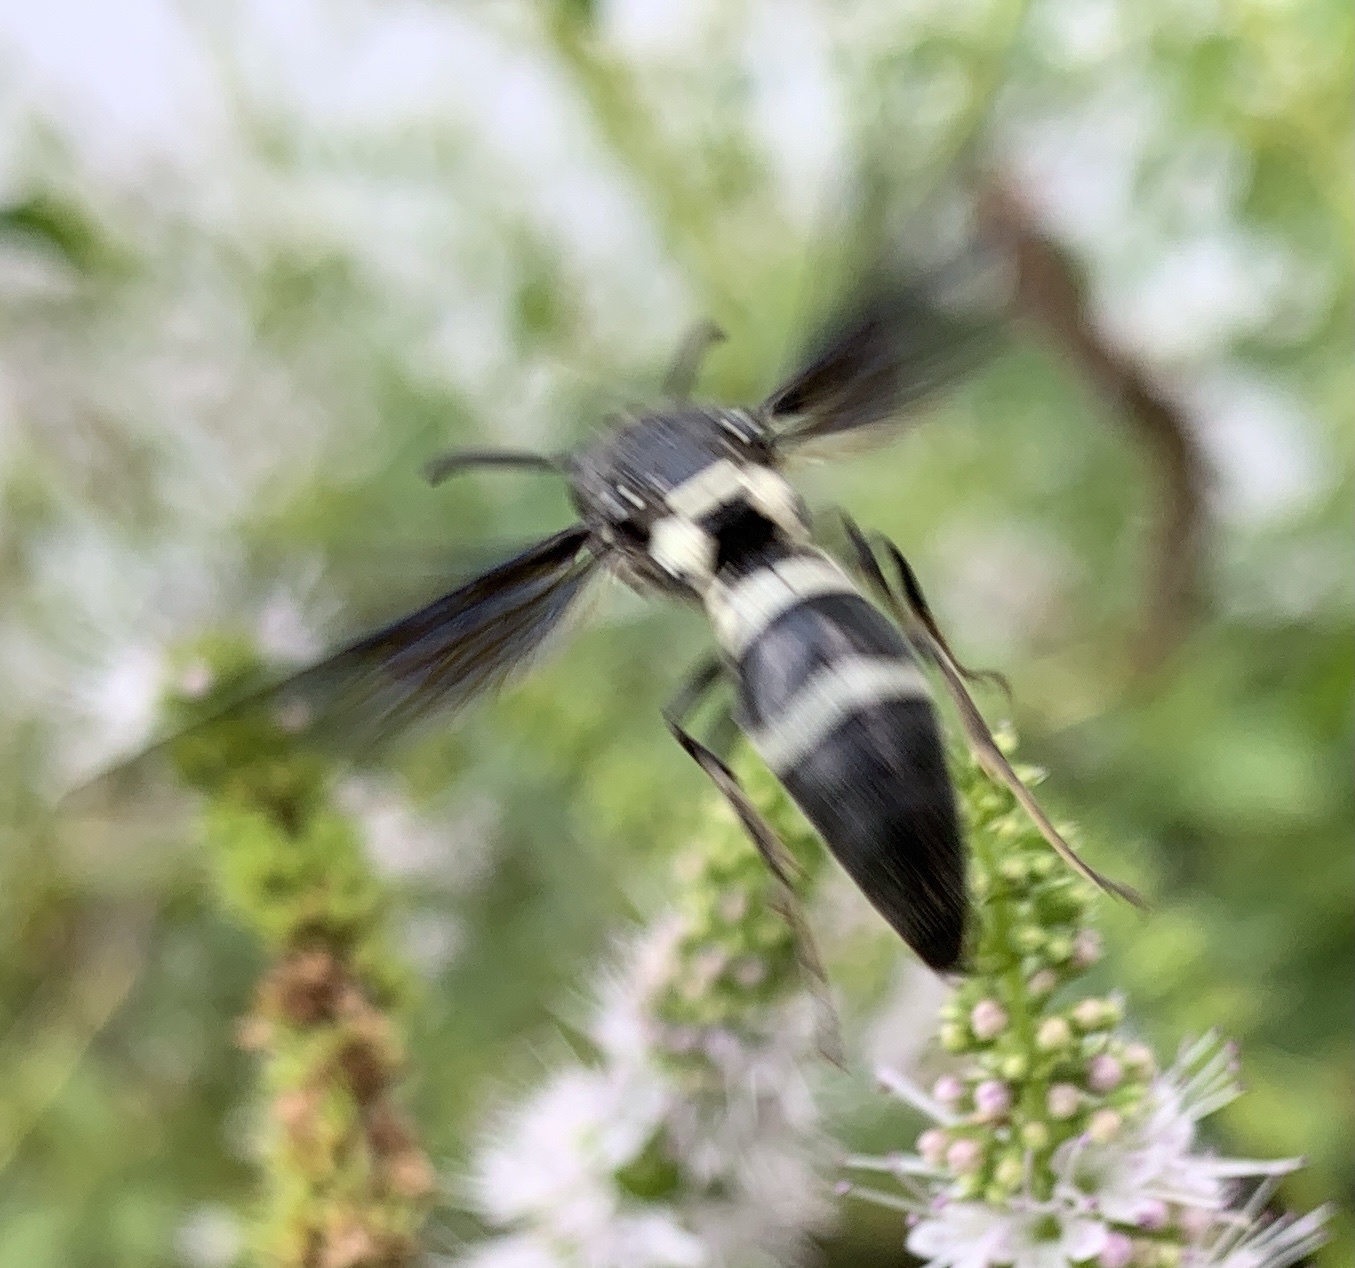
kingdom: Animalia
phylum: Arthropoda
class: Insecta
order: Hymenoptera
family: Eumenidae
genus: Pseudodynerus
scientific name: Pseudodynerus quadrisectus
